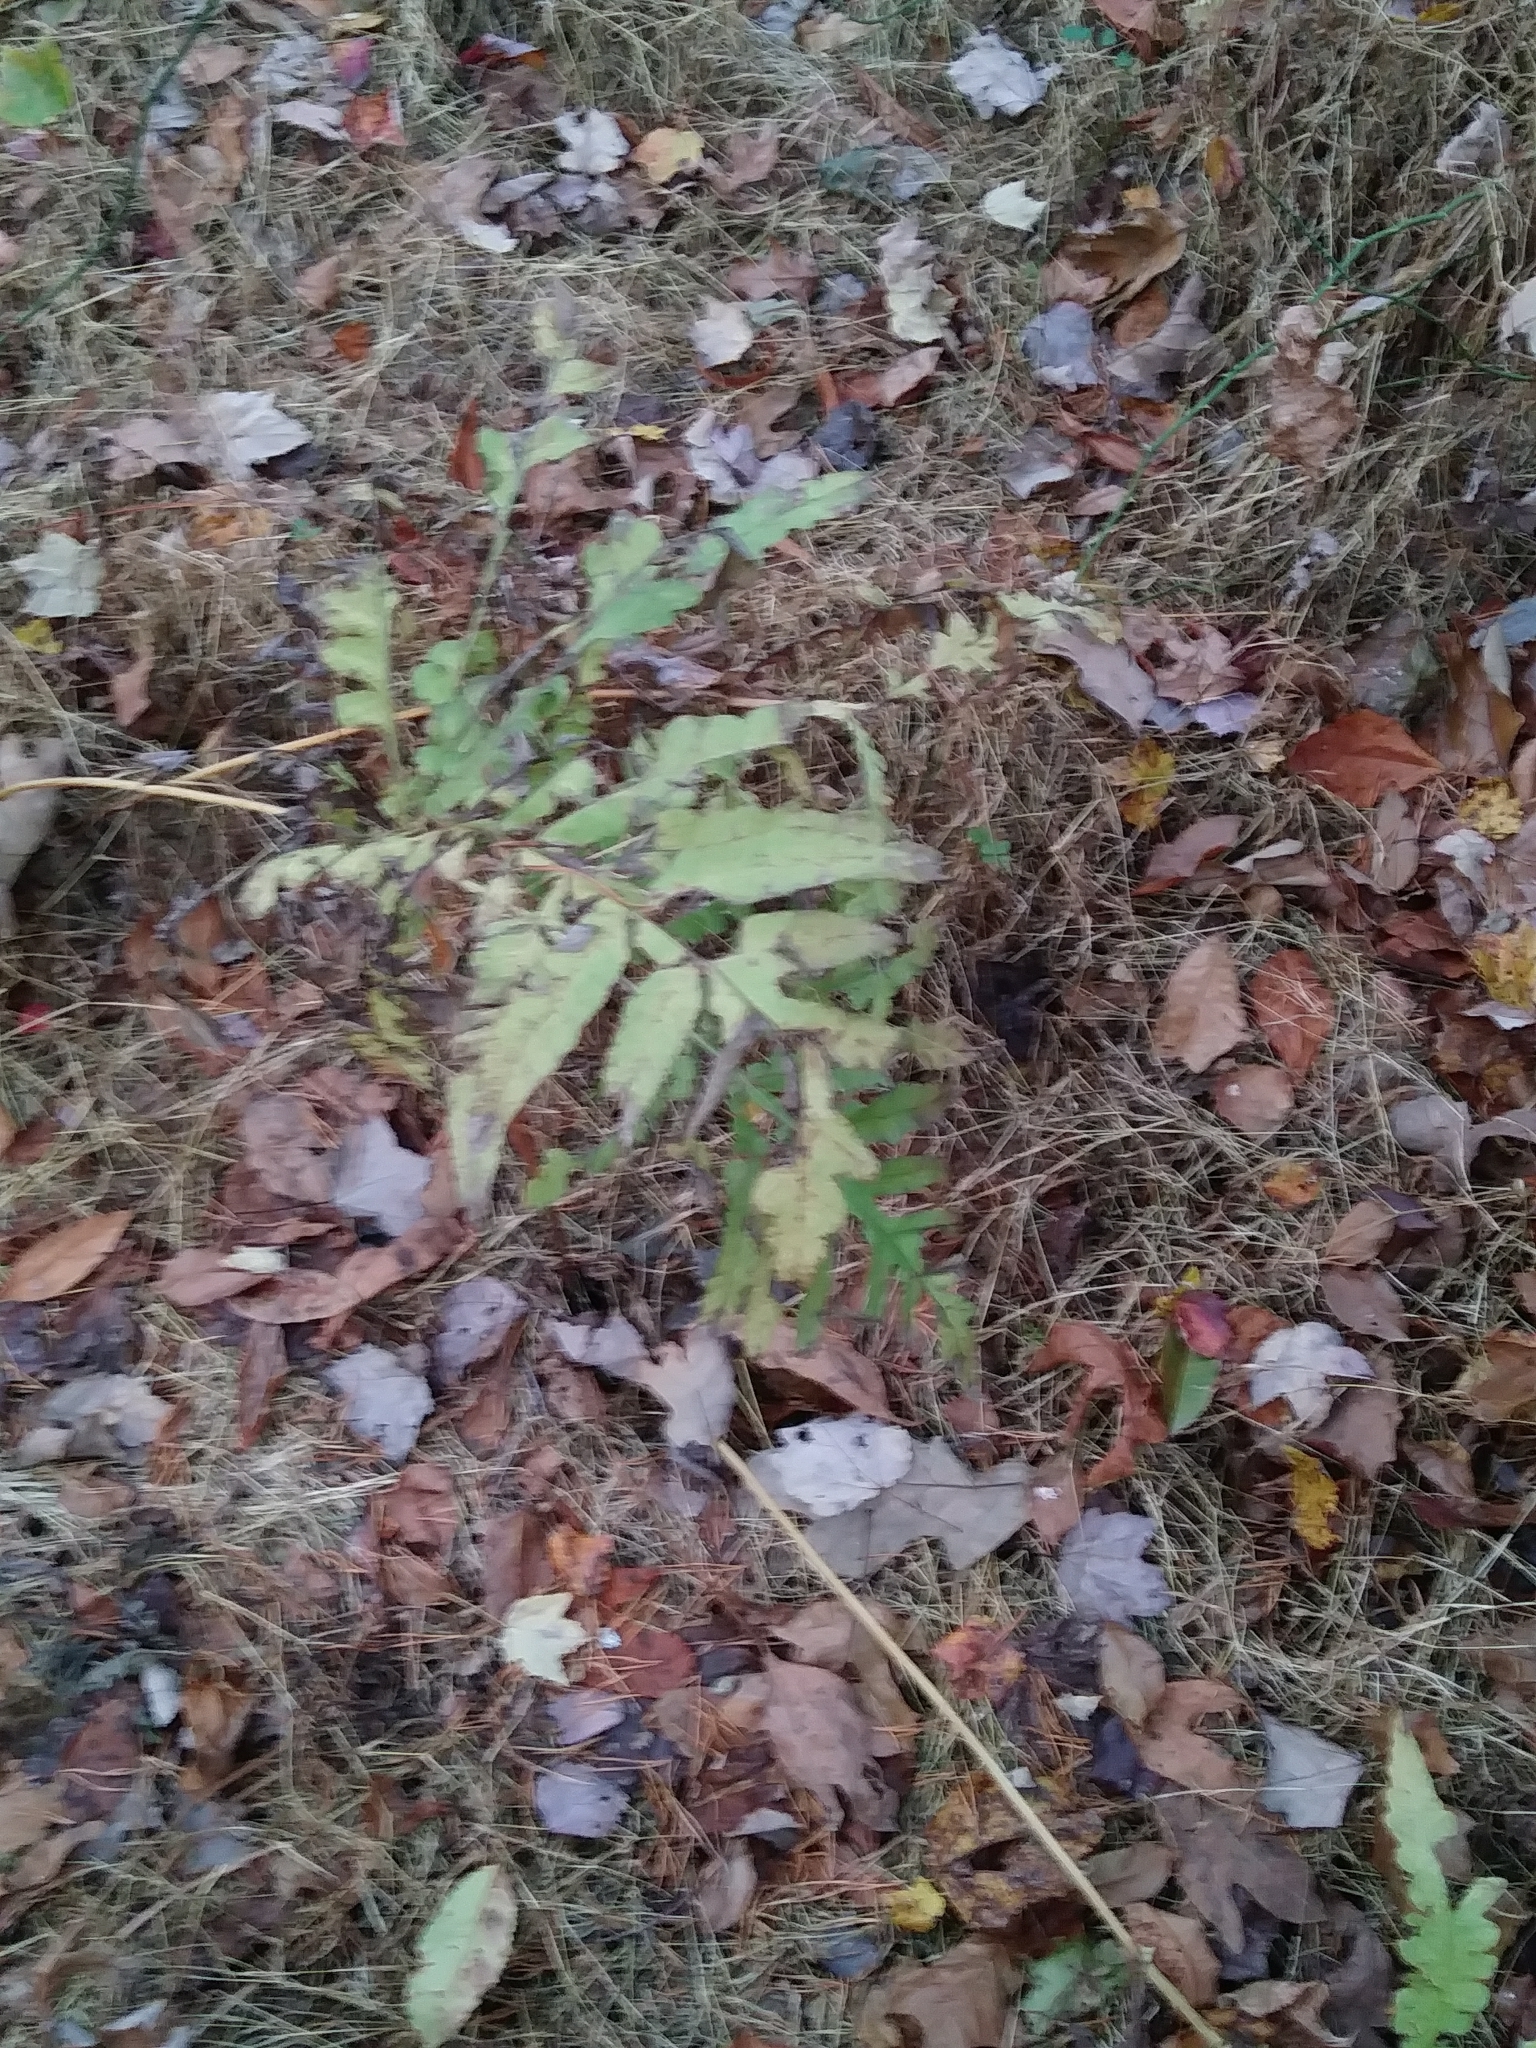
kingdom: Plantae
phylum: Tracheophyta
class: Polypodiopsida
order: Polypodiales
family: Onocleaceae
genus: Onoclea
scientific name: Onoclea sensibilis
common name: Sensitive fern
